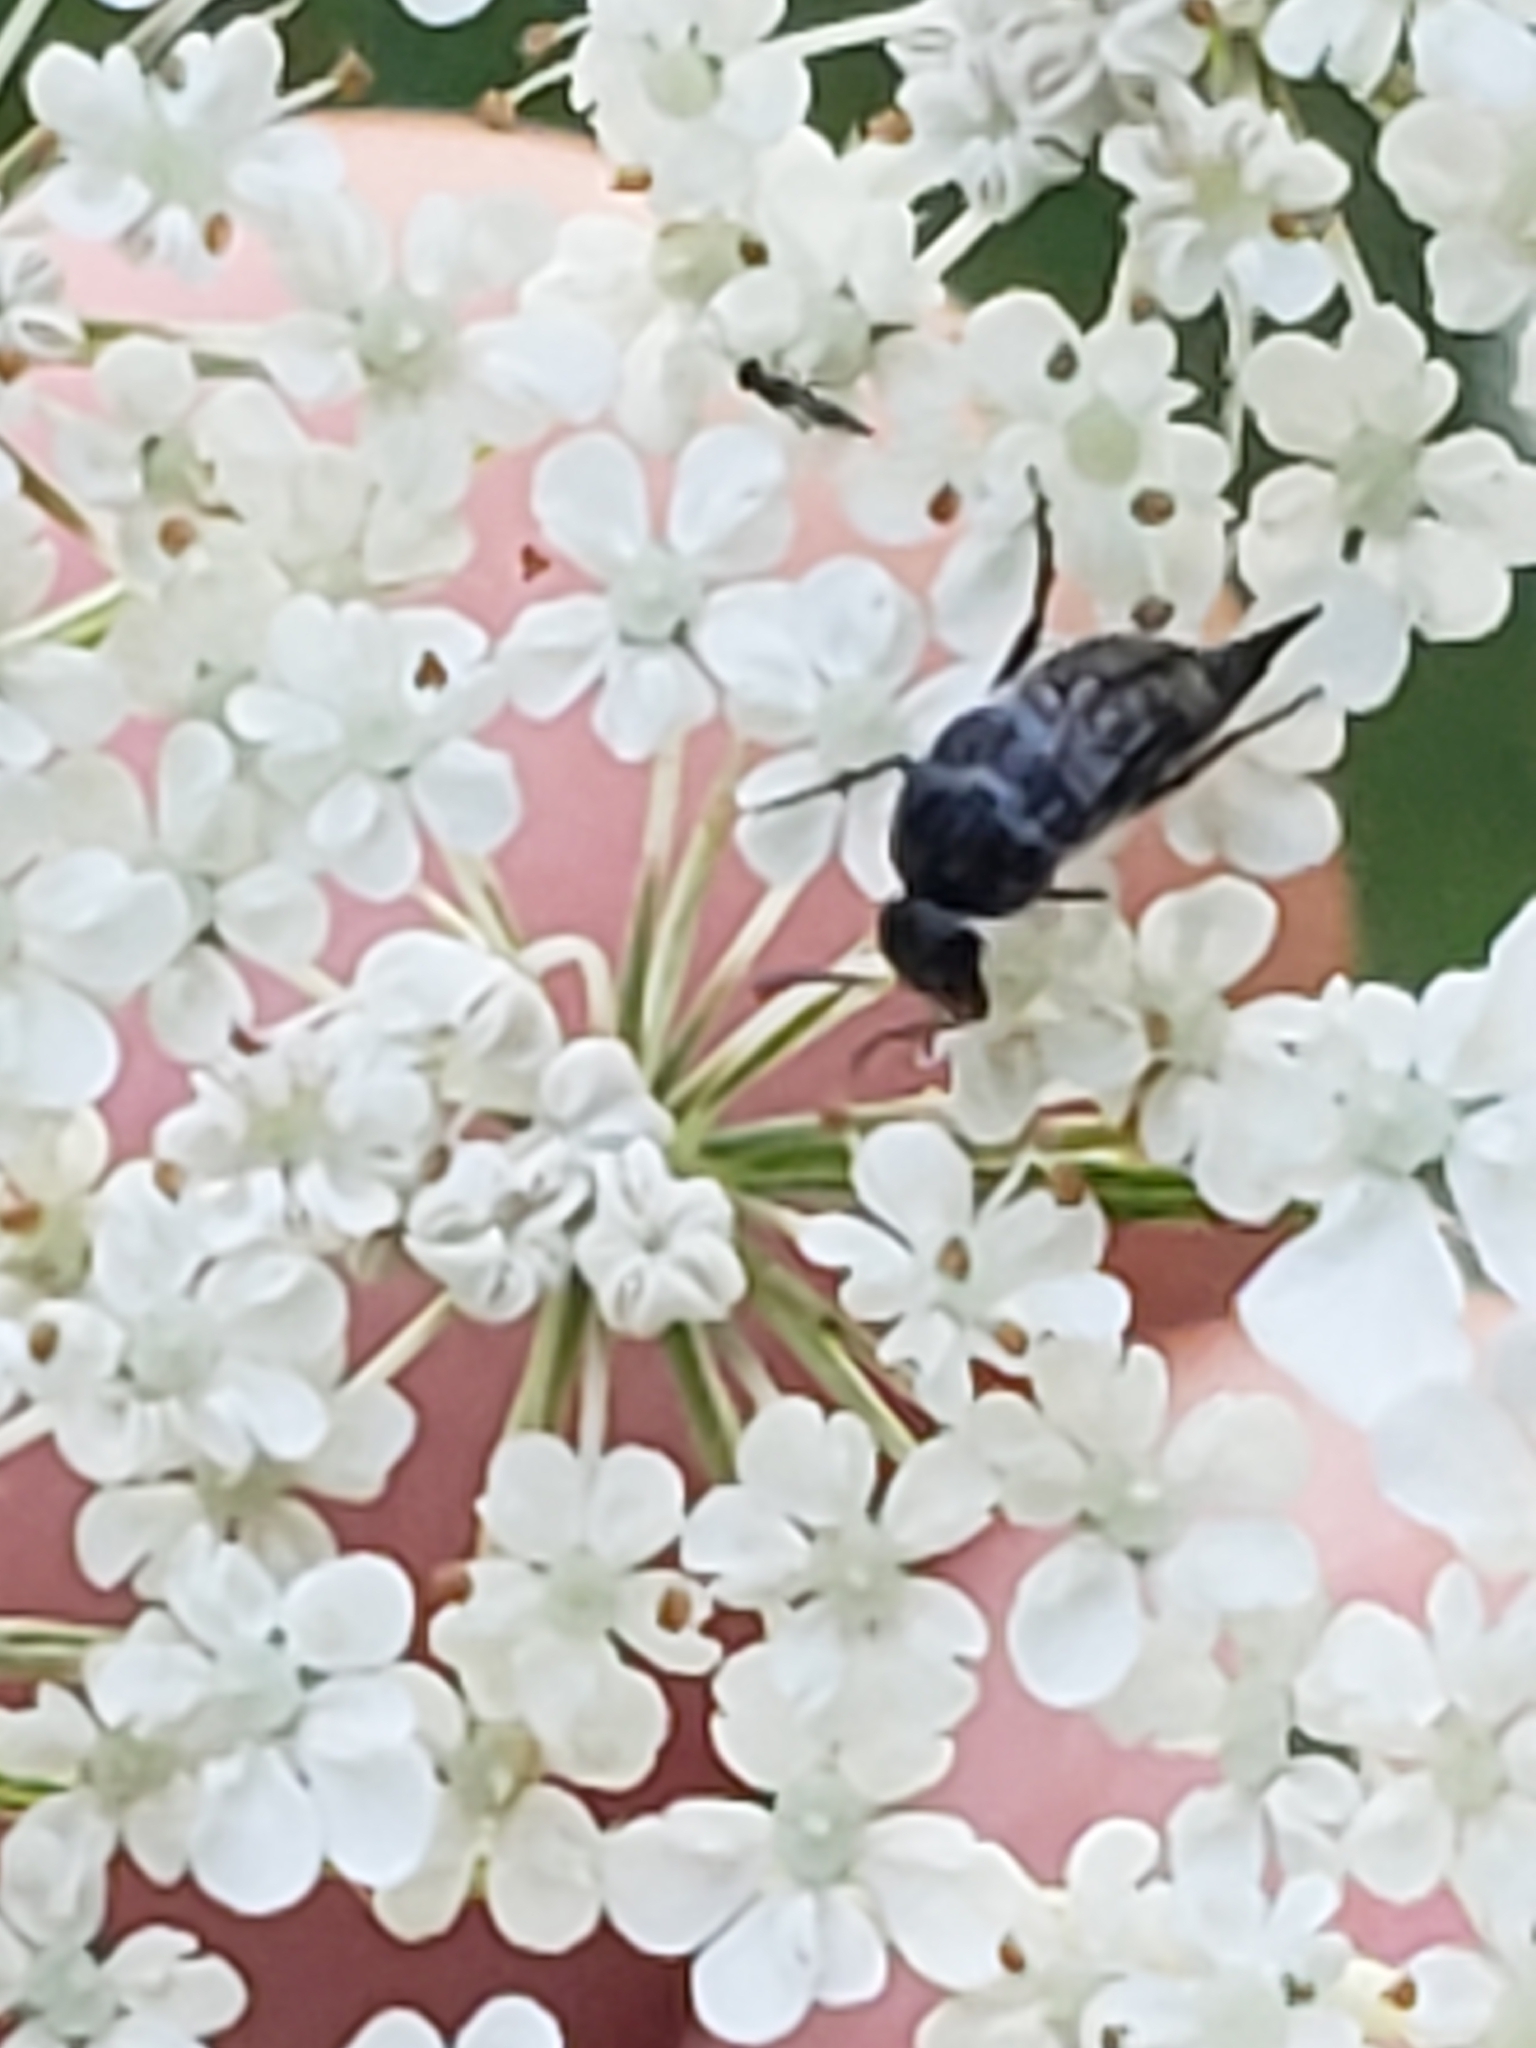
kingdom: Animalia
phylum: Arthropoda
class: Insecta
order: Coleoptera
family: Mordellidae
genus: Mordella
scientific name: Mordella marginata
